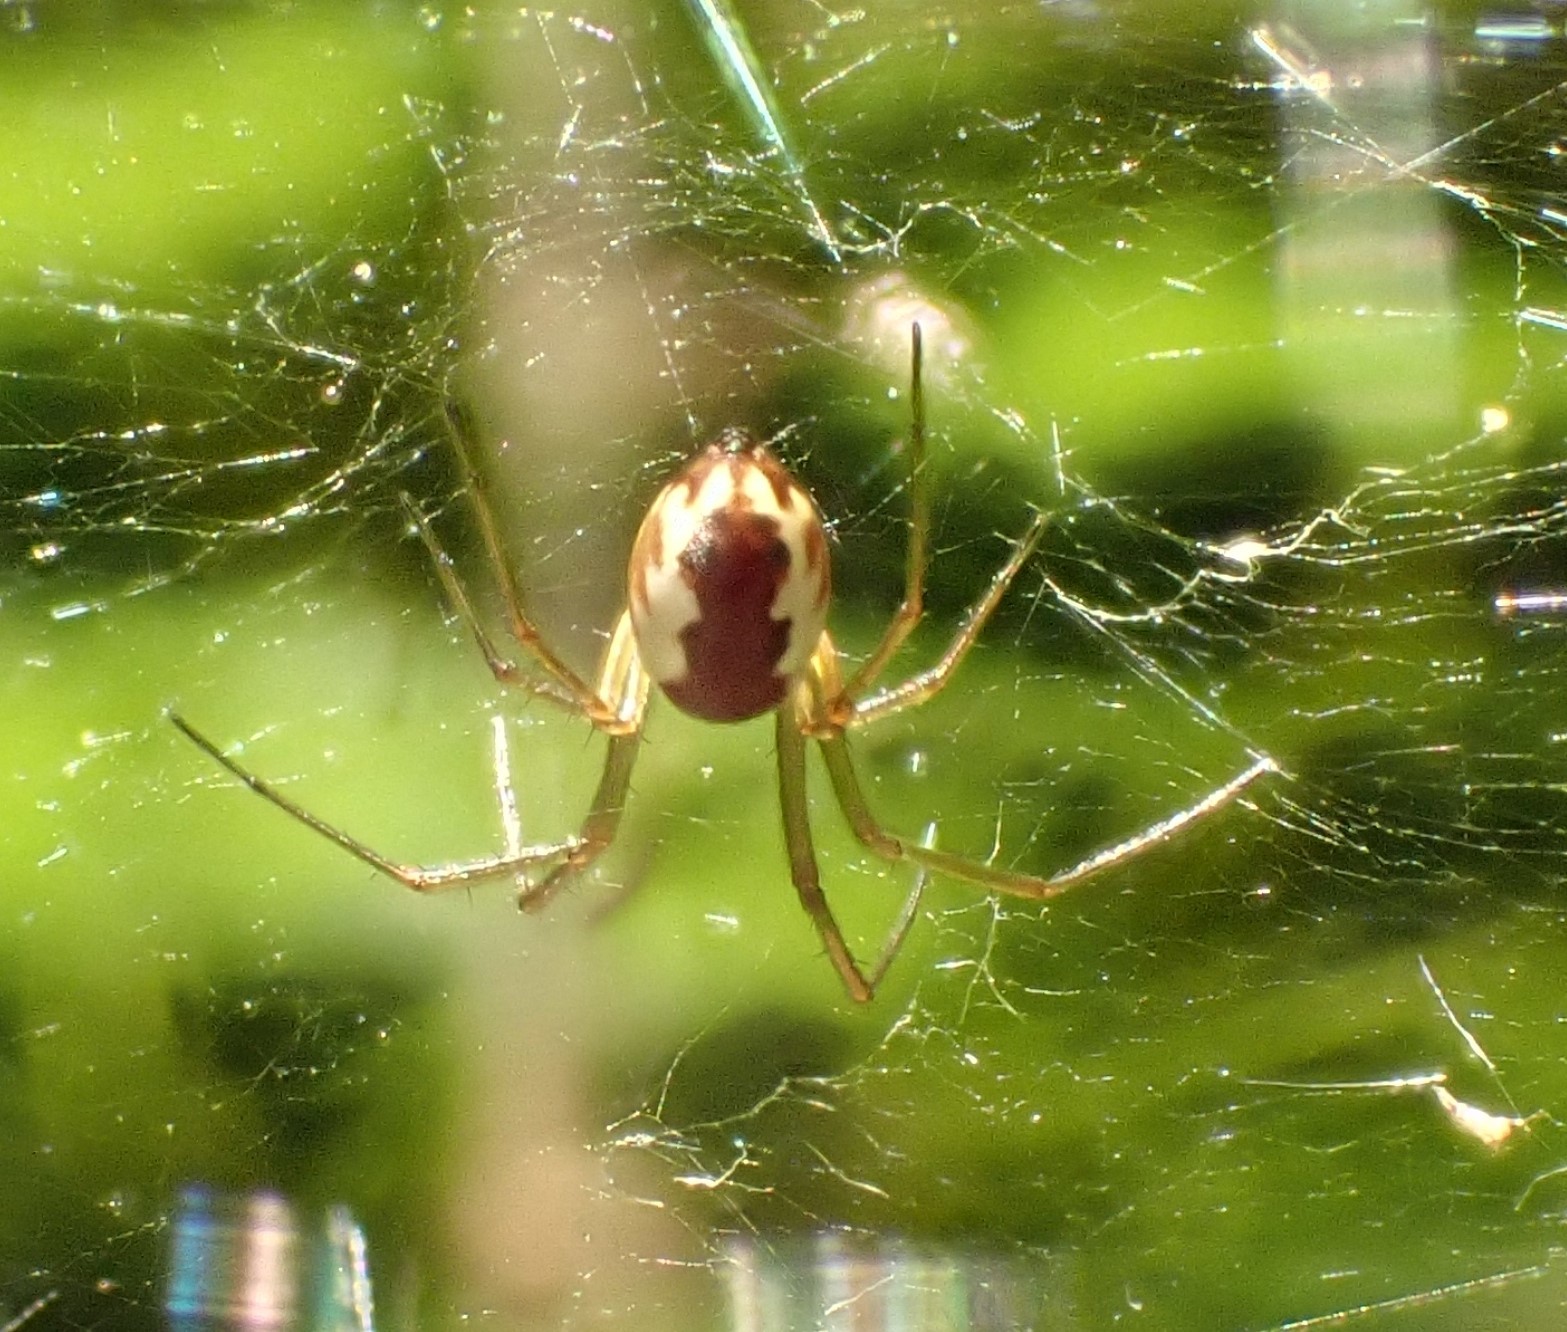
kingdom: Animalia
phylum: Arthropoda
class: Arachnida
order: Araneae
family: Linyphiidae
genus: Neriene
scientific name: Neriene peltata
